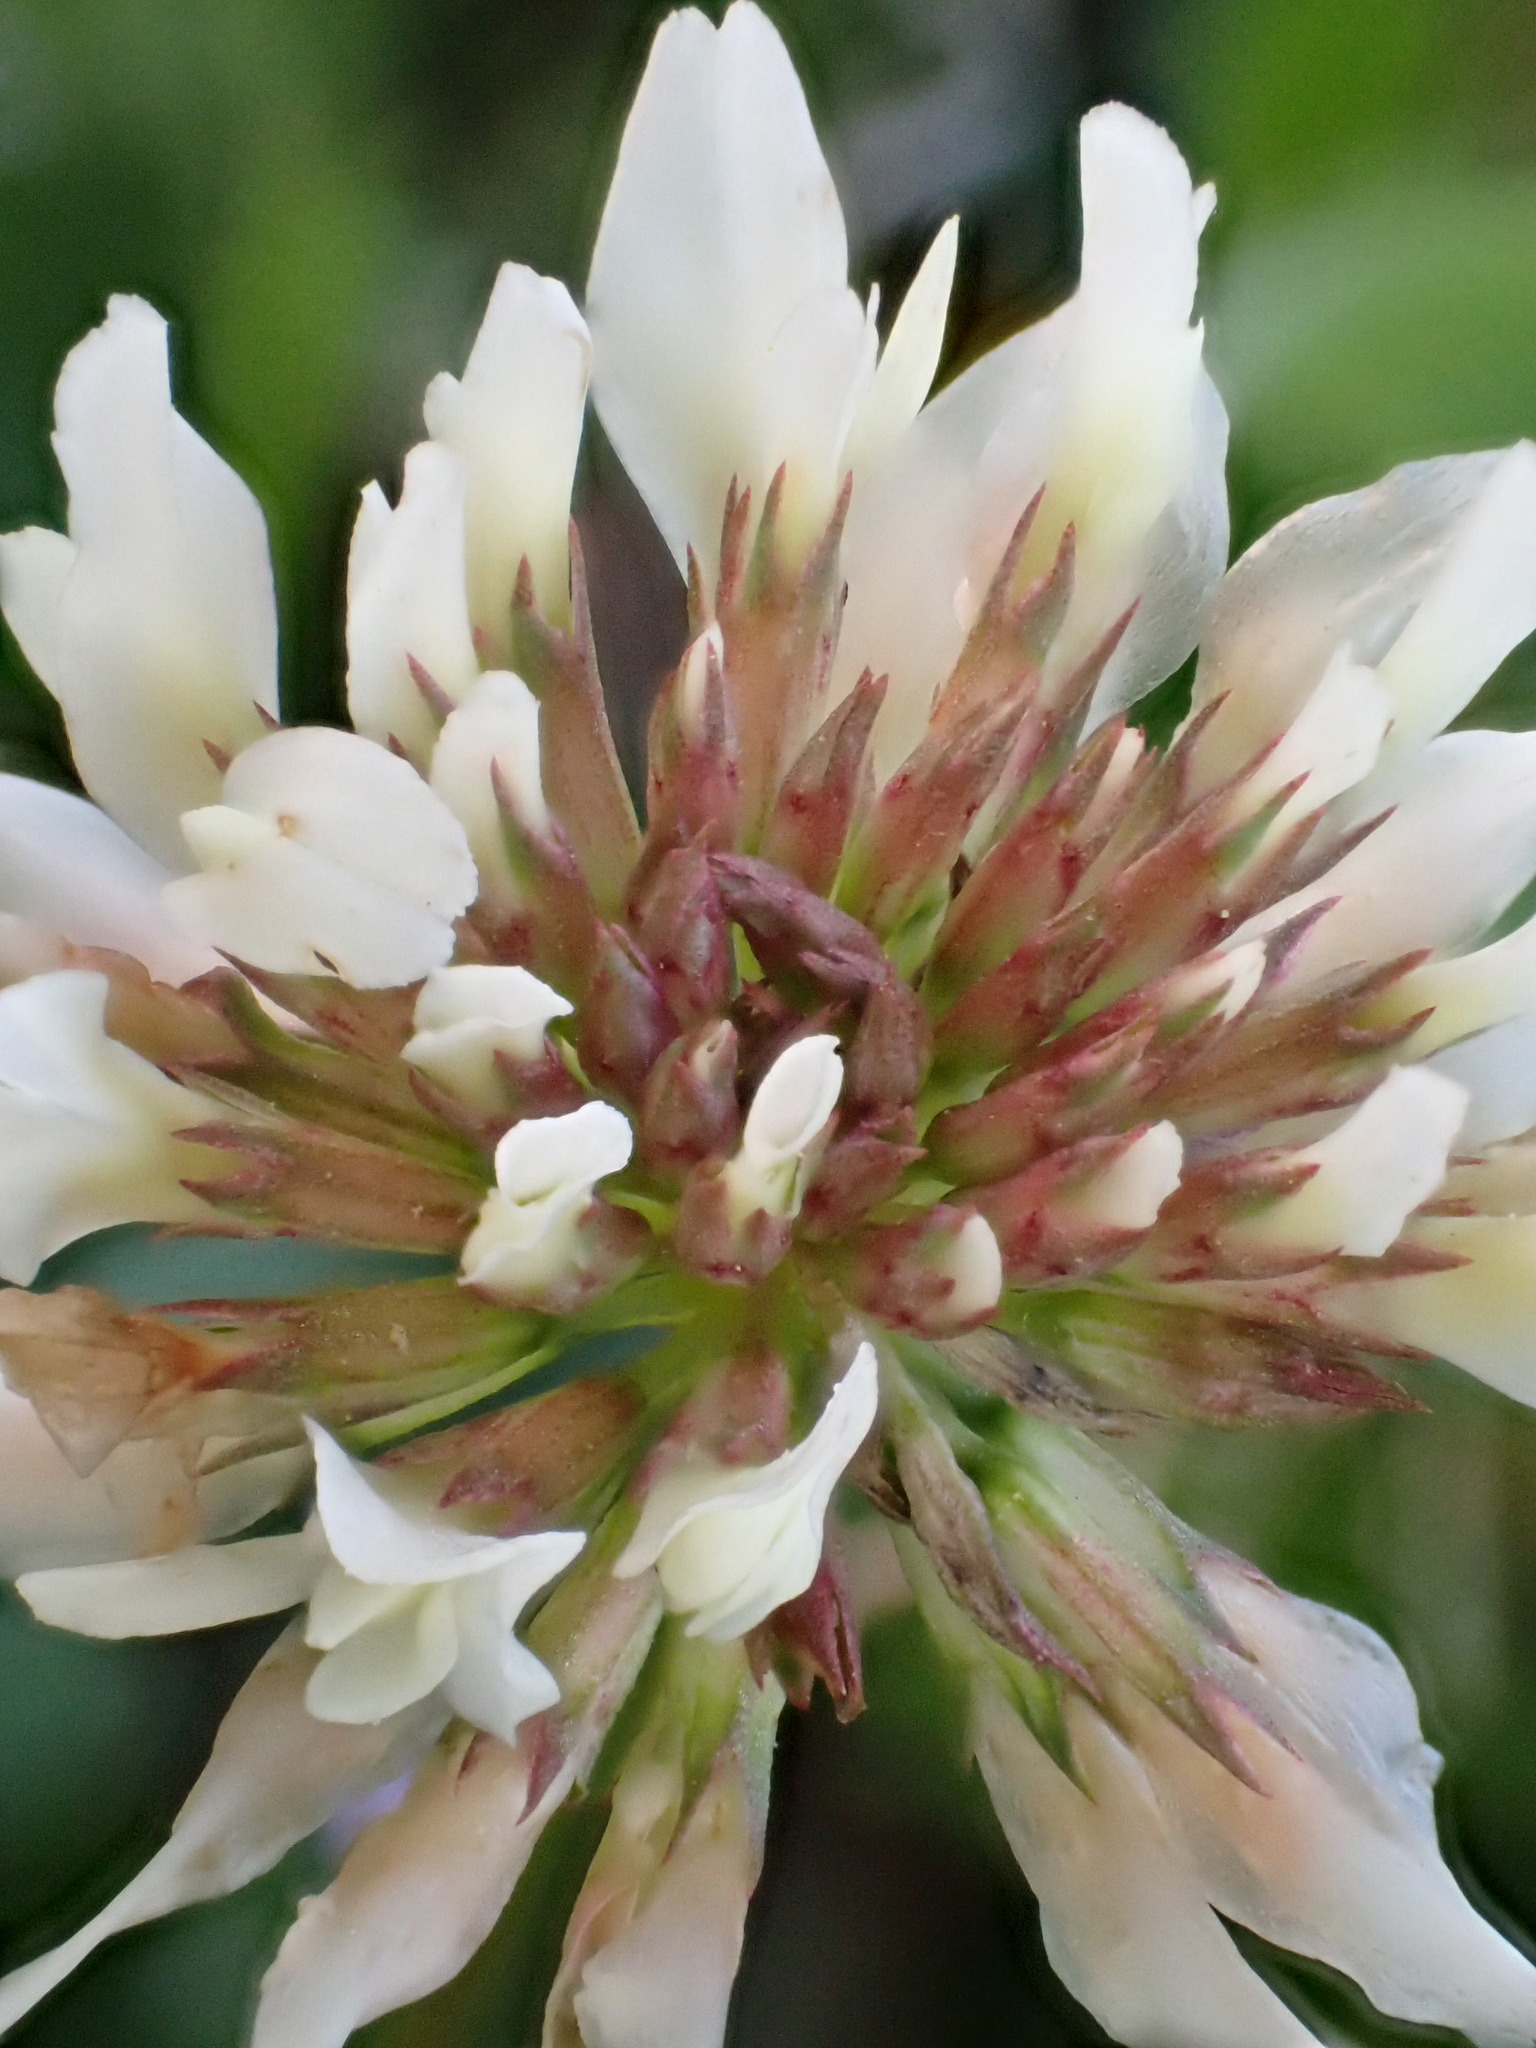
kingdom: Plantae
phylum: Tracheophyta
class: Magnoliopsida
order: Fabales
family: Fabaceae
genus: Trifolium
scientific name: Trifolium repens
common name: White clover
